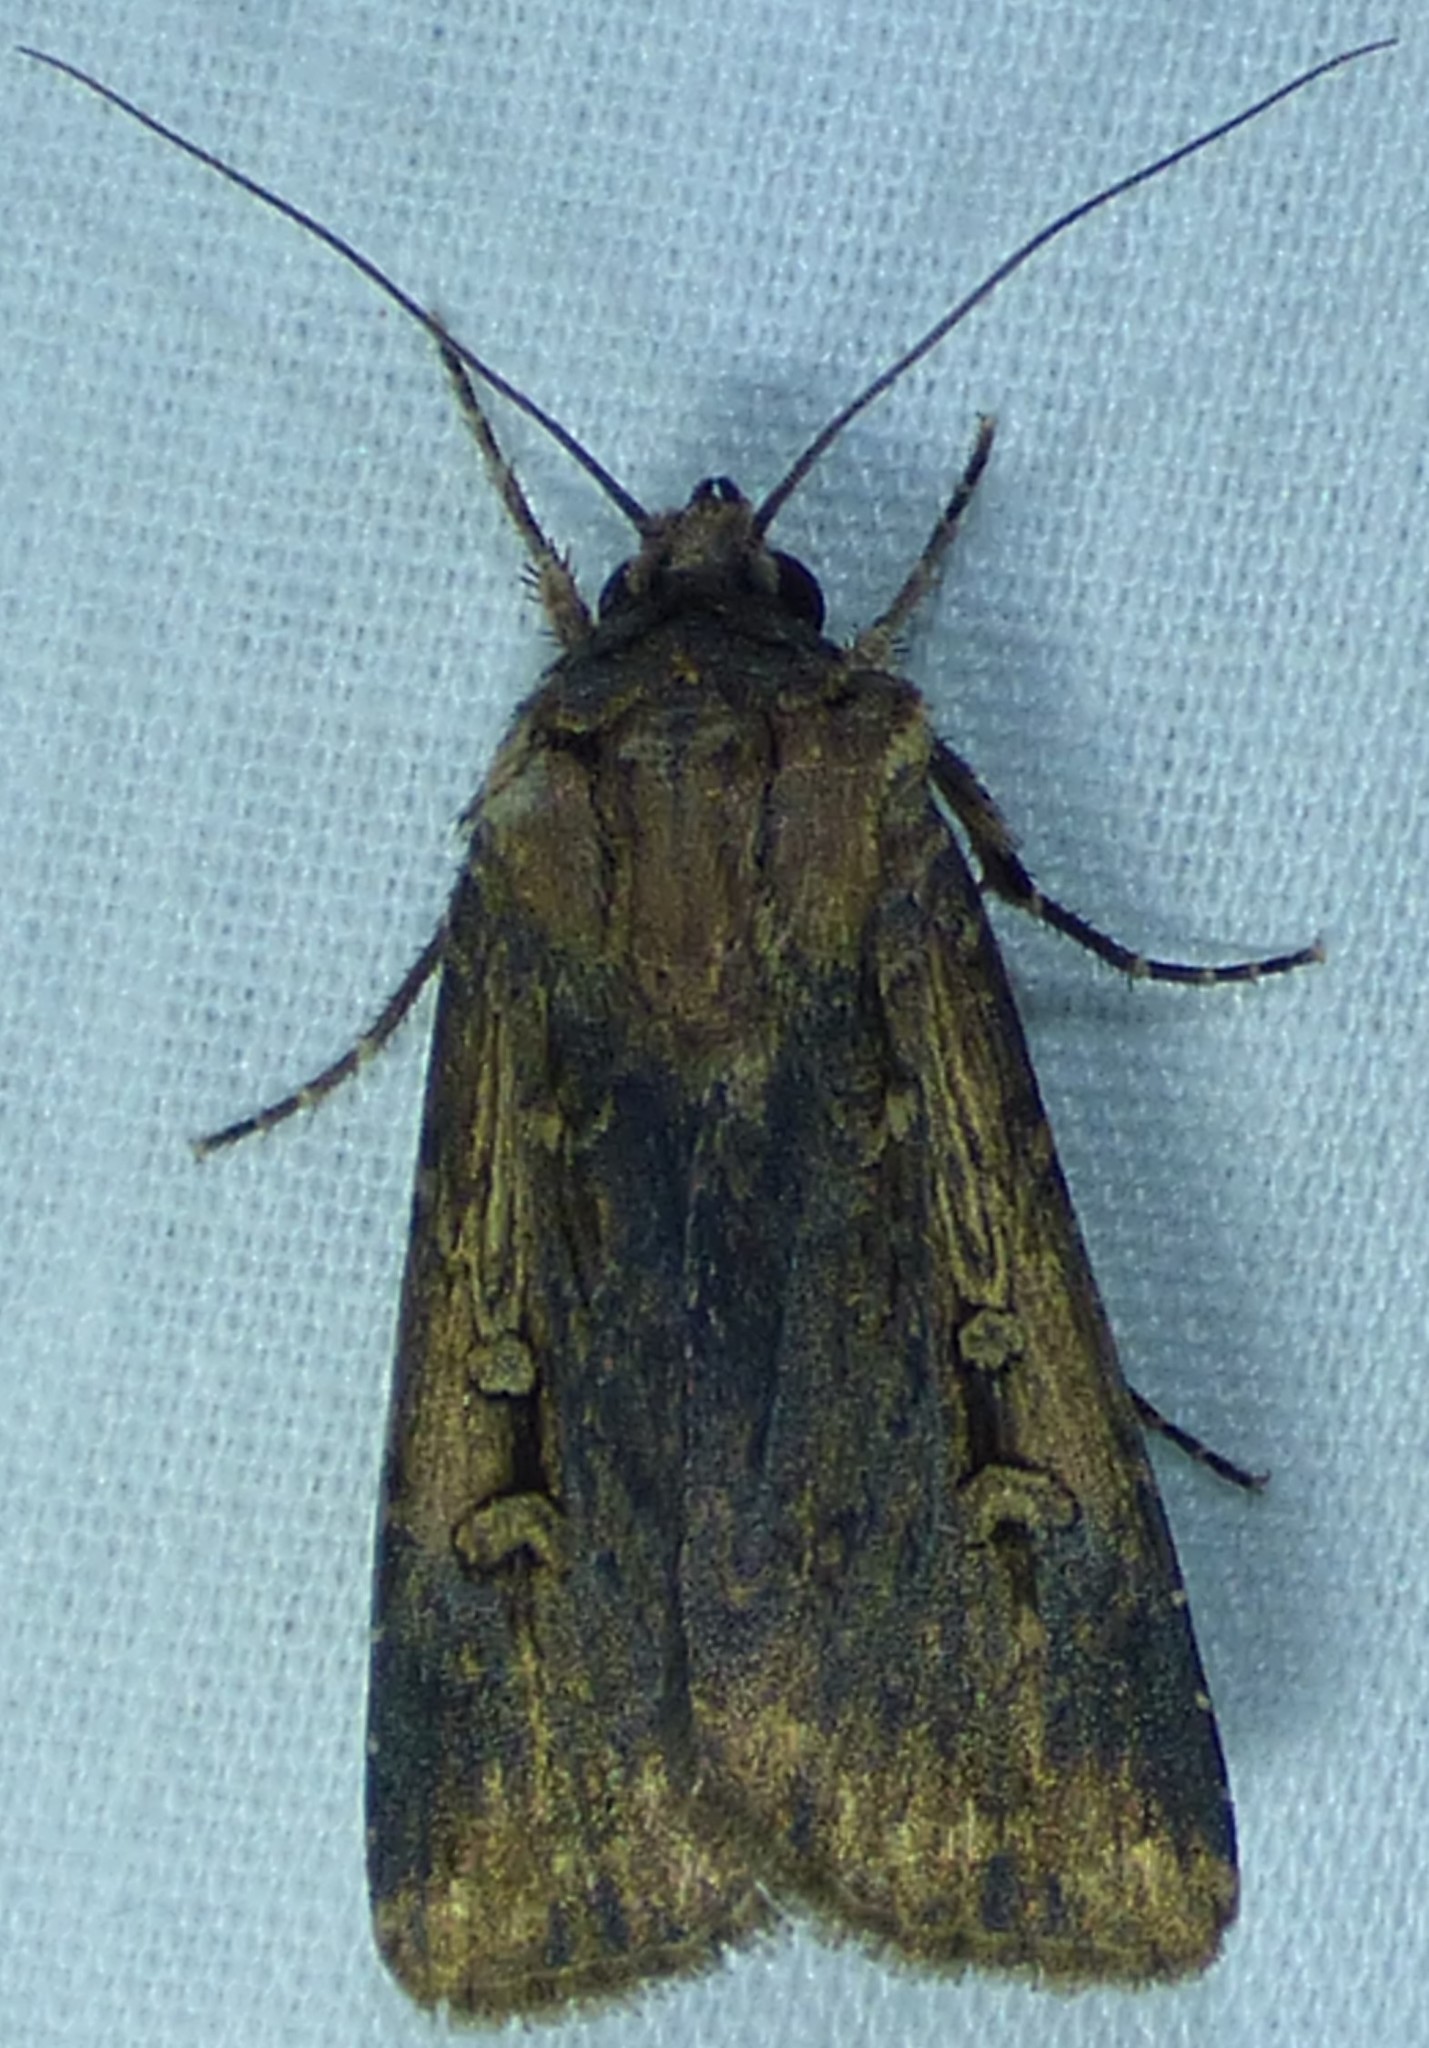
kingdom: Animalia
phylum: Arthropoda
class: Insecta
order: Lepidoptera
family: Noctuidae
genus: Feltia
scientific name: Feltia subterranea
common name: Granulate cutworm
